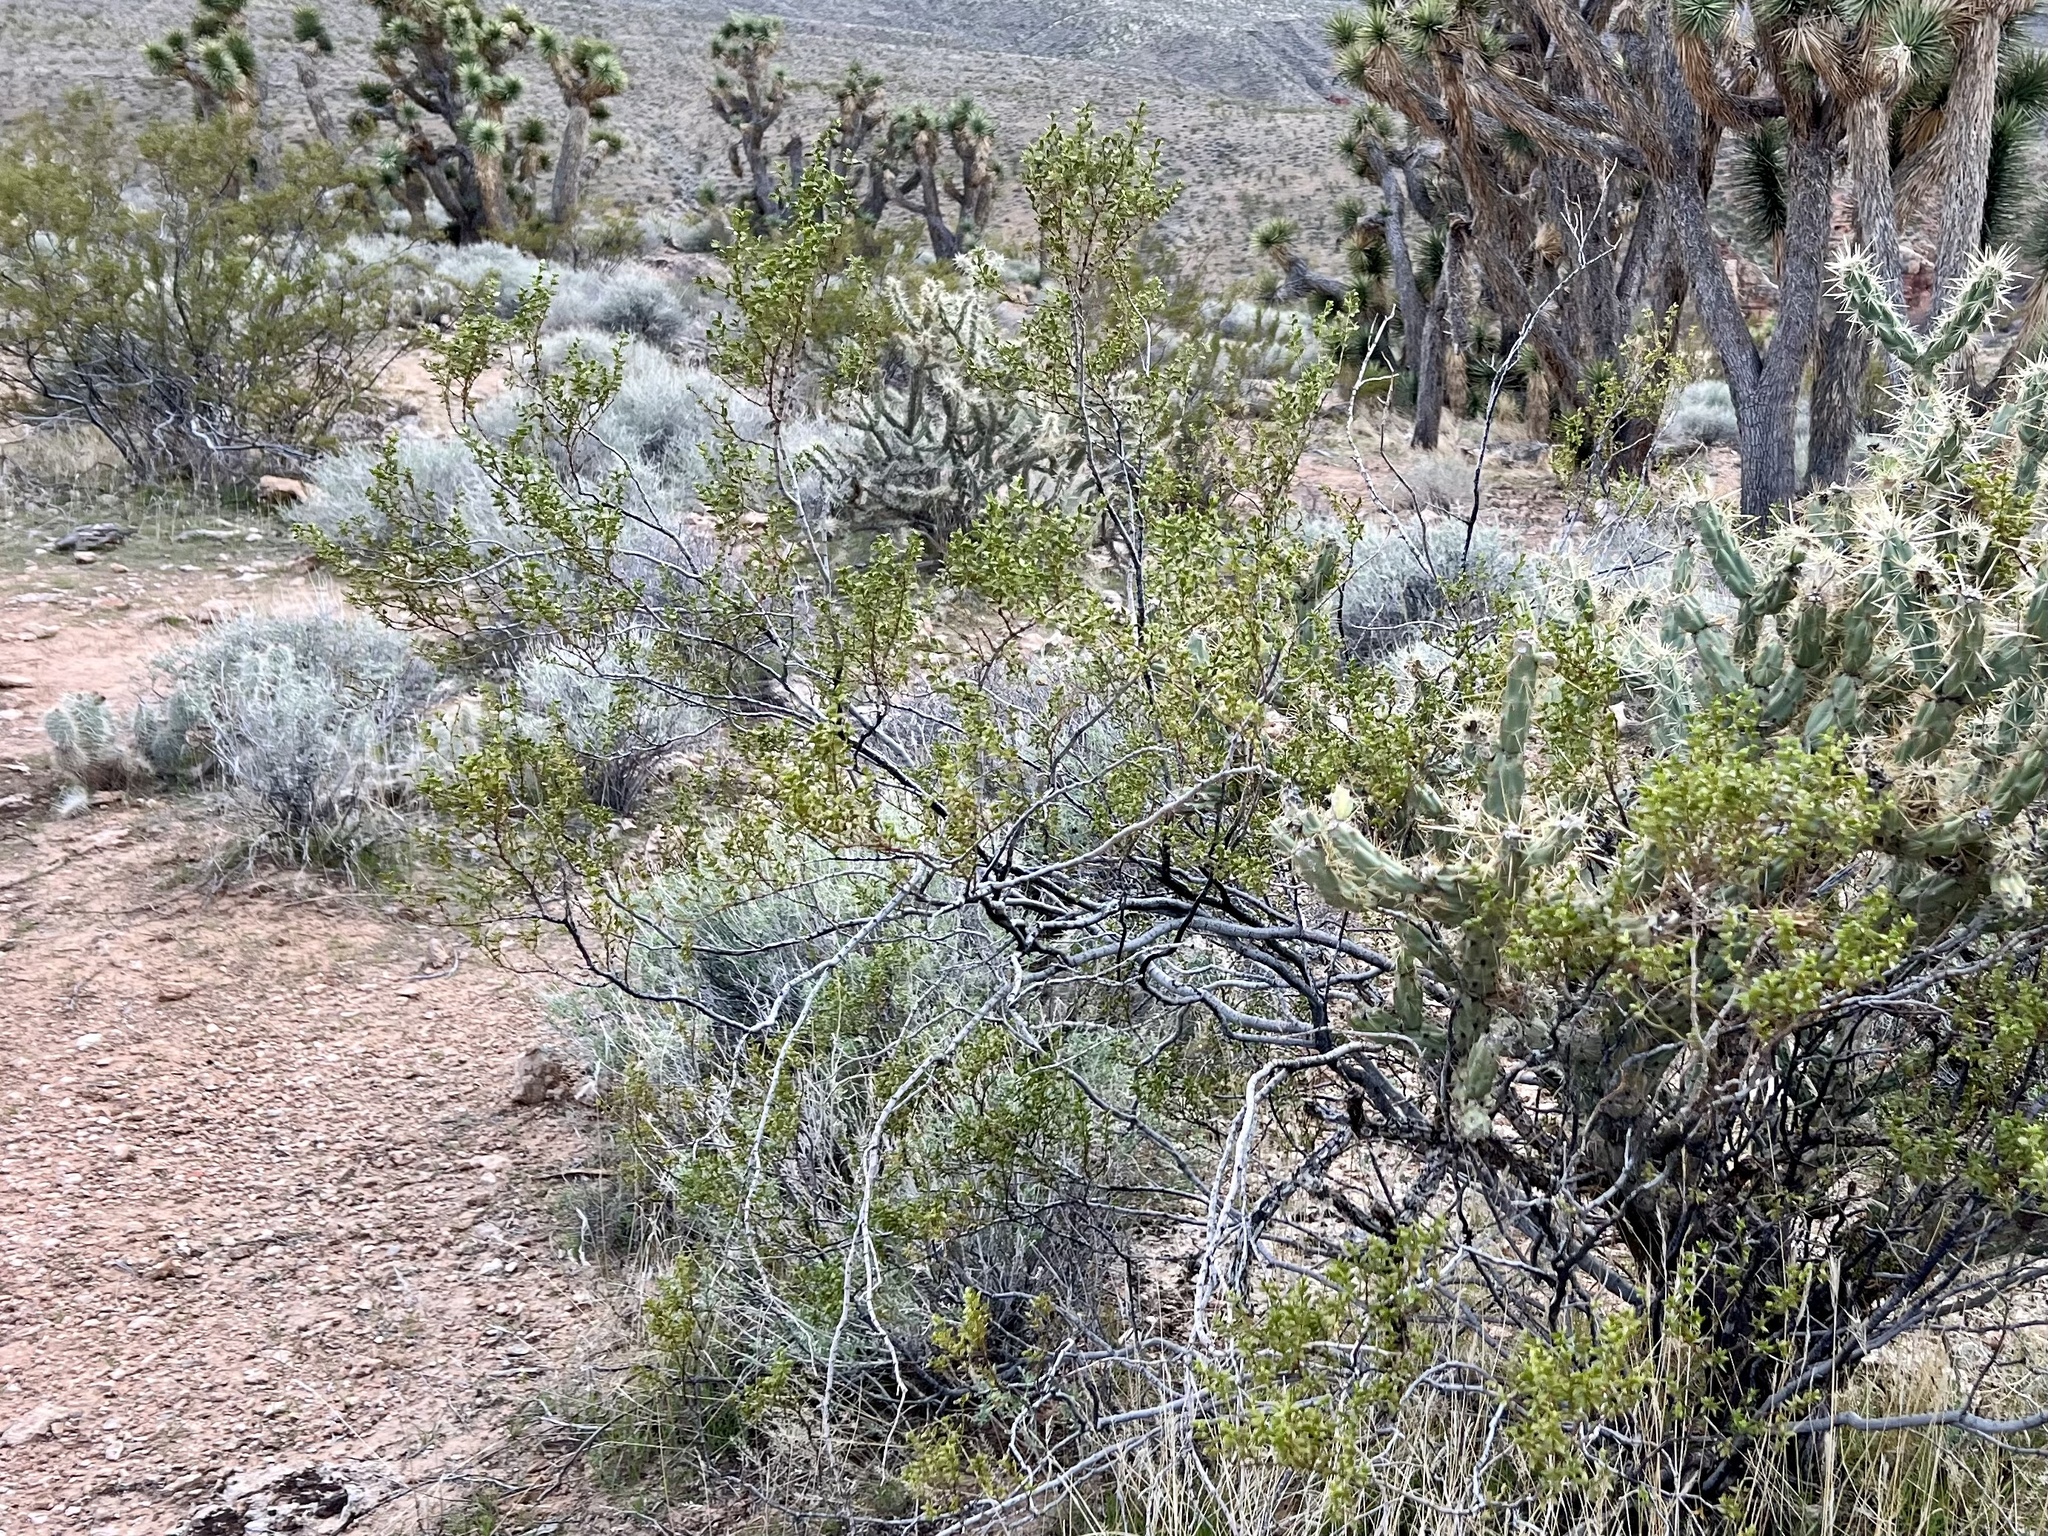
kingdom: Plantae
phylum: Tracheophyta
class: Magnoliopsida
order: Zygophyllales
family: Zygophyllaceae
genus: Larrea
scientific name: Larrea tridentata
